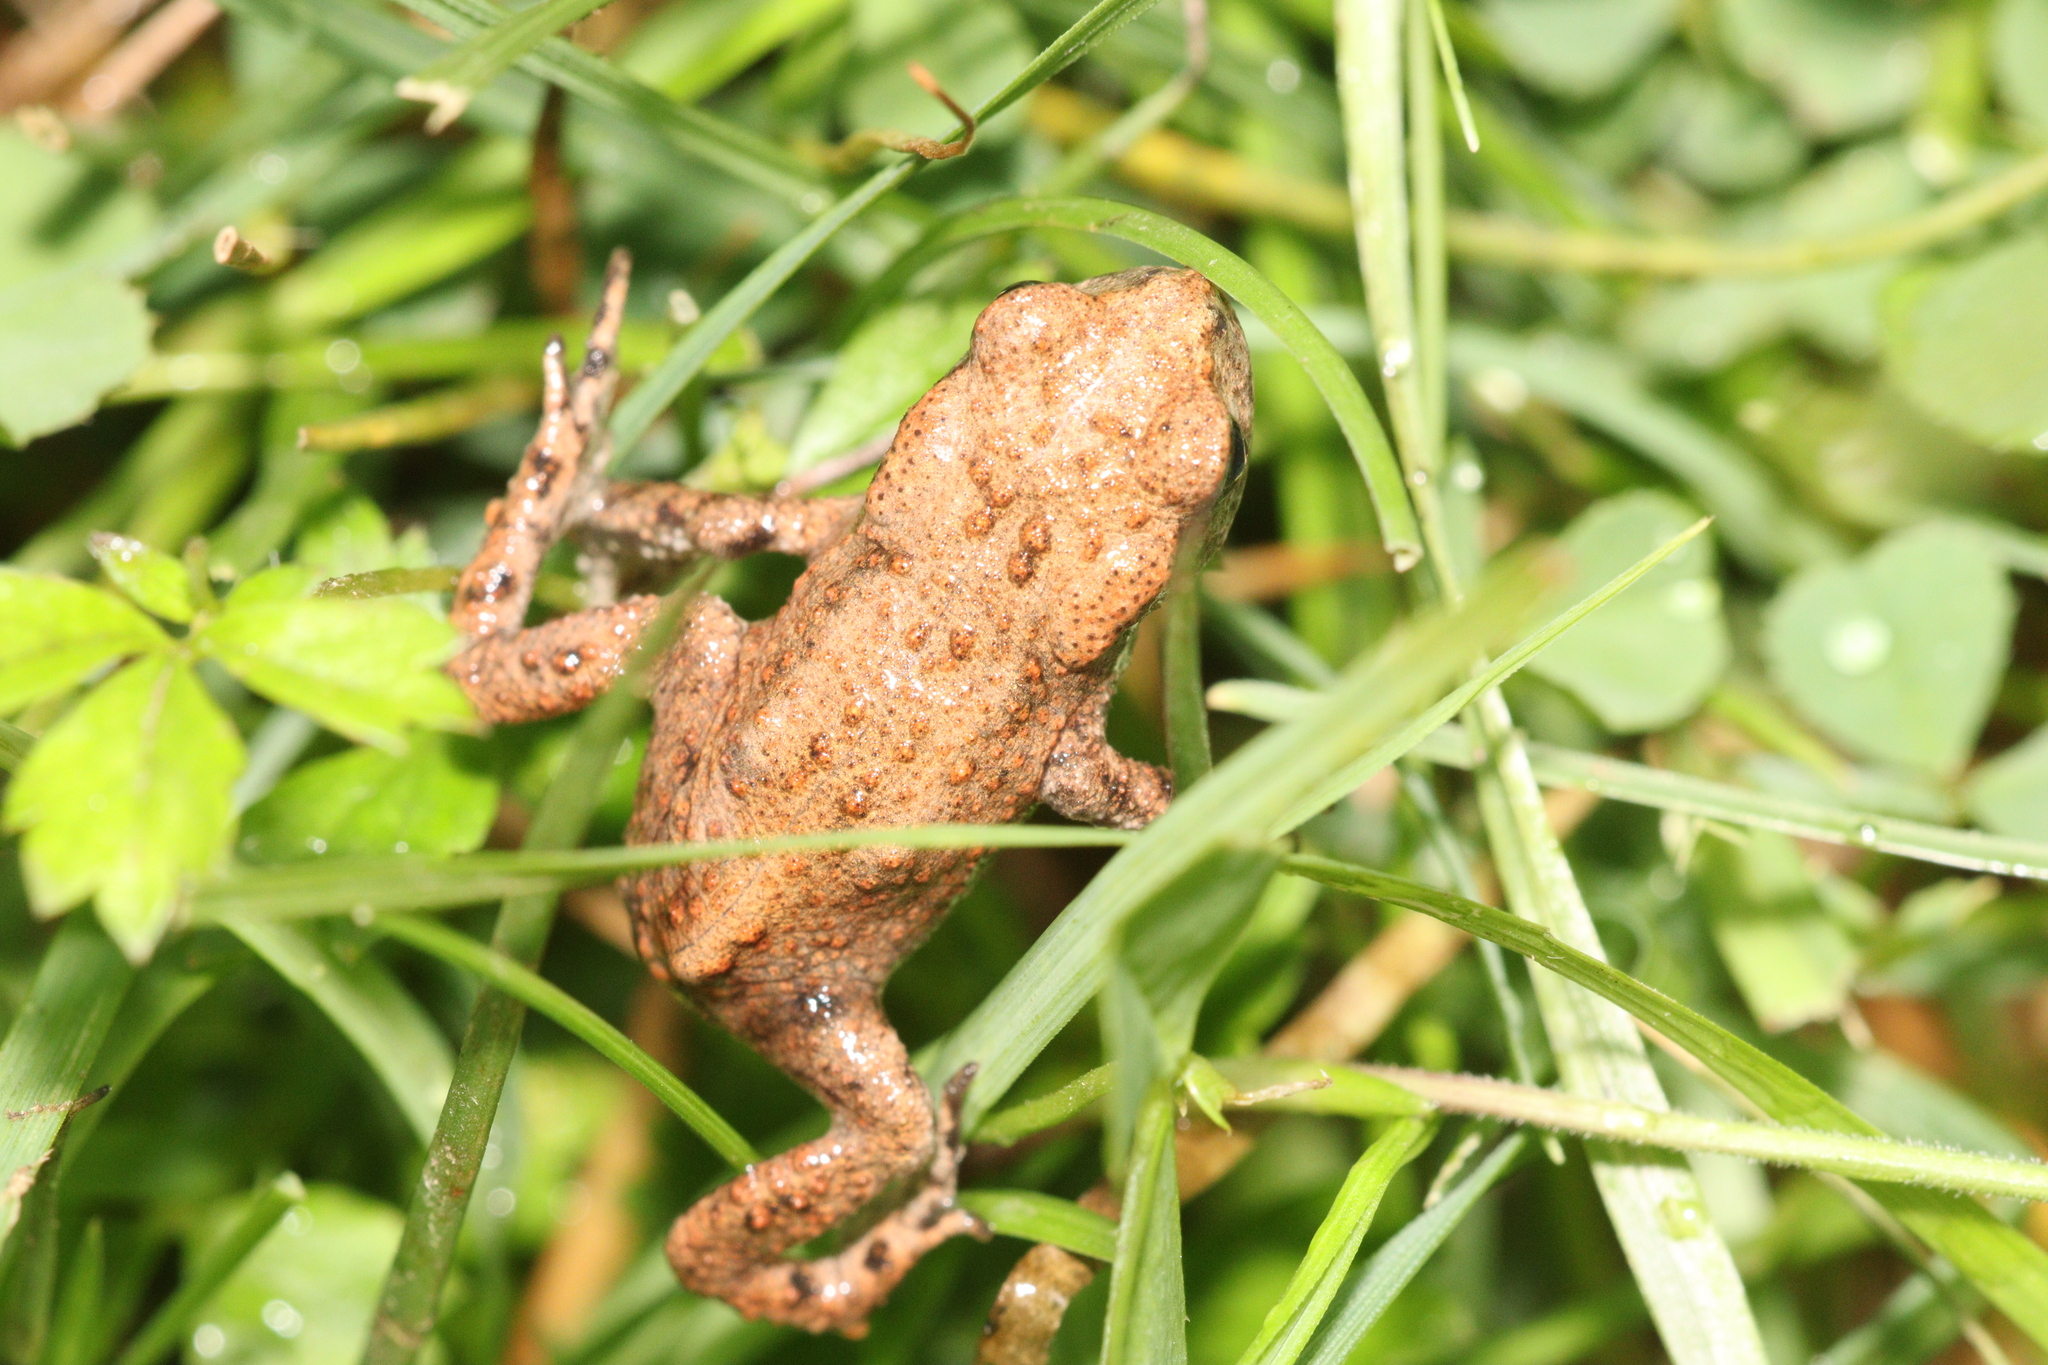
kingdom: Animalia
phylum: Chordata
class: Amphibia
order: Anura
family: Bufonidae
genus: Bufo
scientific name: Bufo bufo
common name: Common toad
